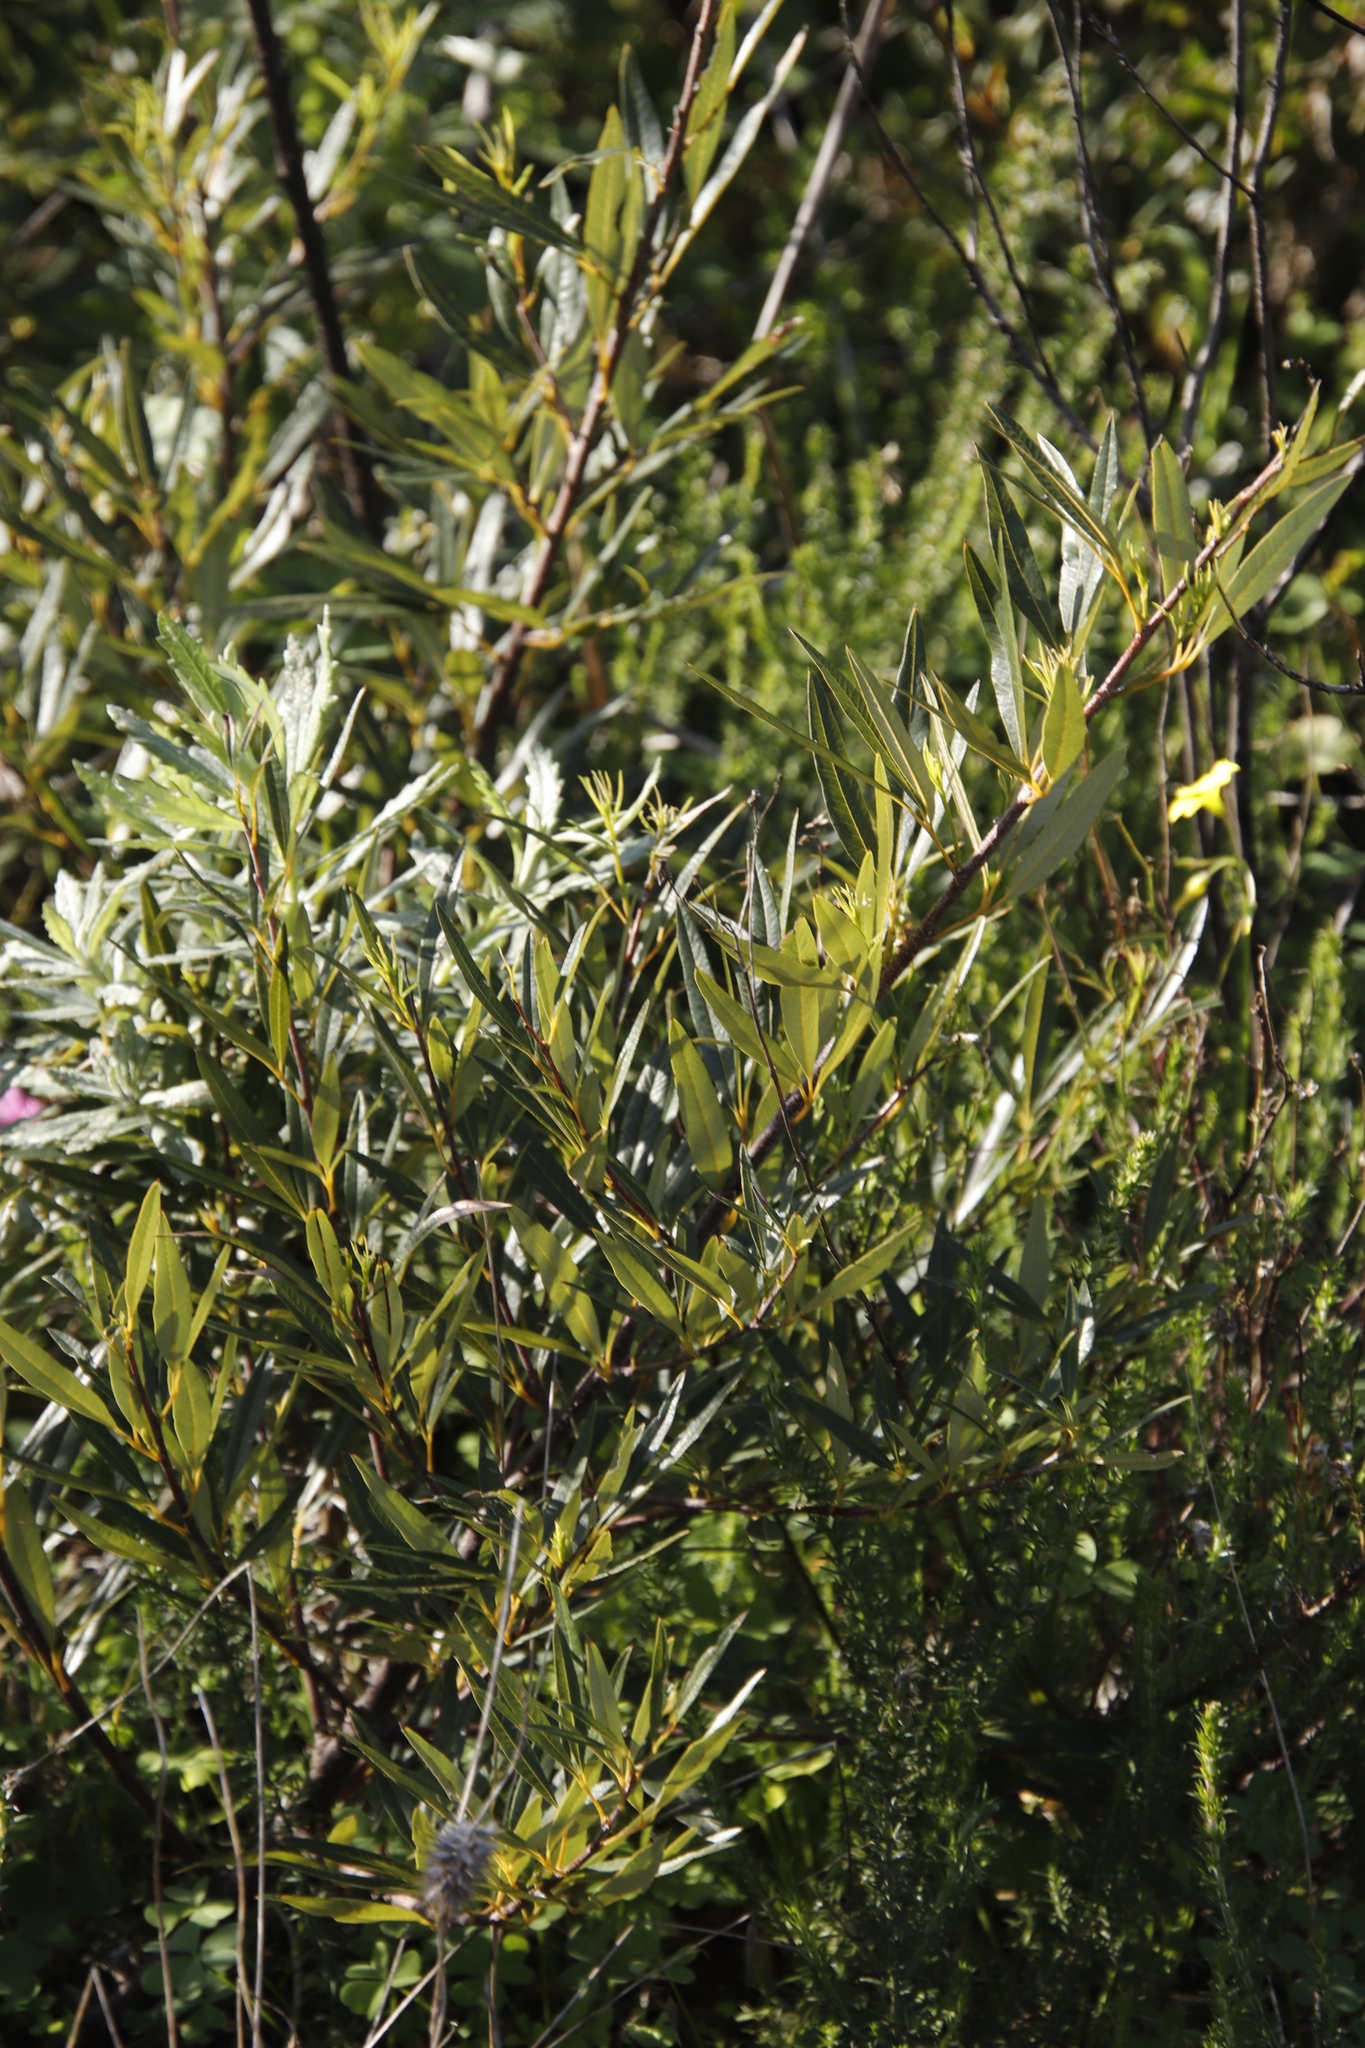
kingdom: Plantae
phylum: Tracheophyta
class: Magnoliopsida
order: Sapindales
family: Anacardiaceae
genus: Searsia
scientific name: Searsia angustifolia
